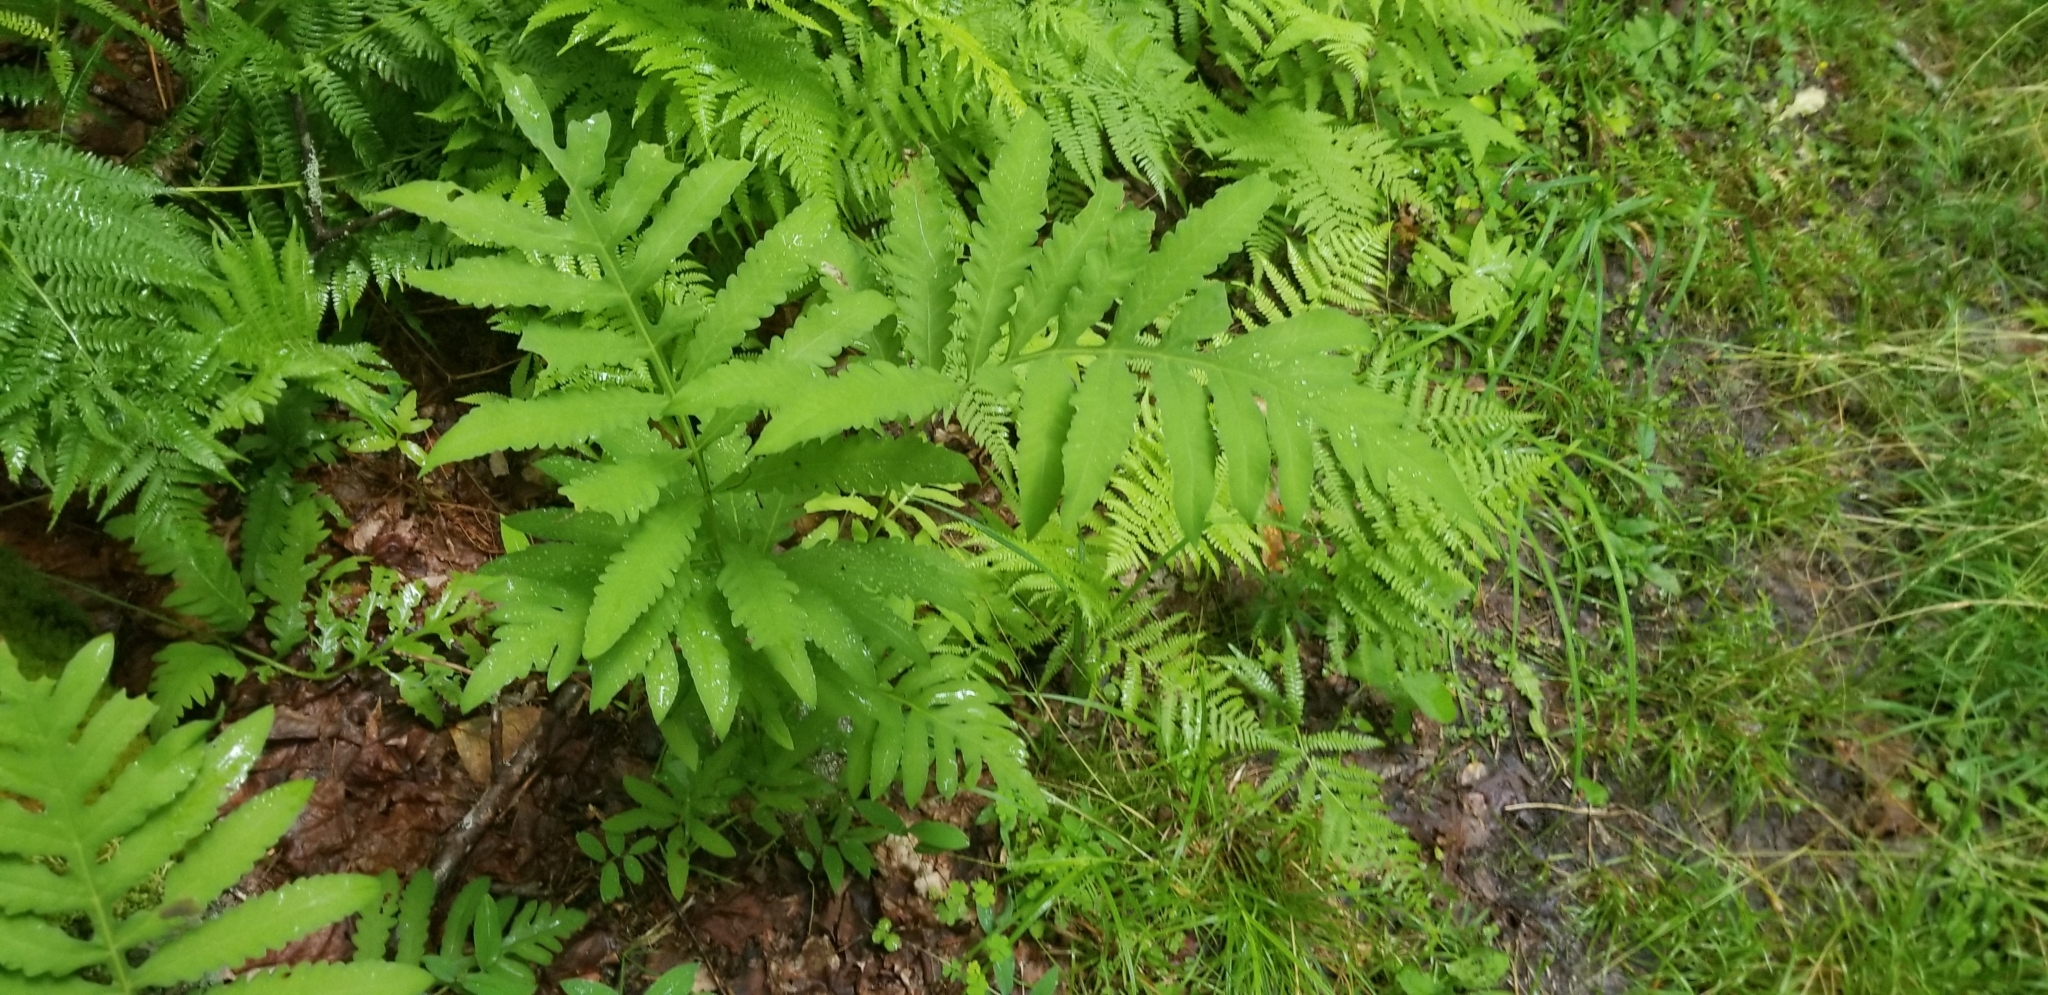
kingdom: Plantae
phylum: Tracheophyta
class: Polypodiopsida
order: Polypodiales
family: Onocleaceae
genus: Onoclea
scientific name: Onoclea sensibilis
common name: Sensitive fern
